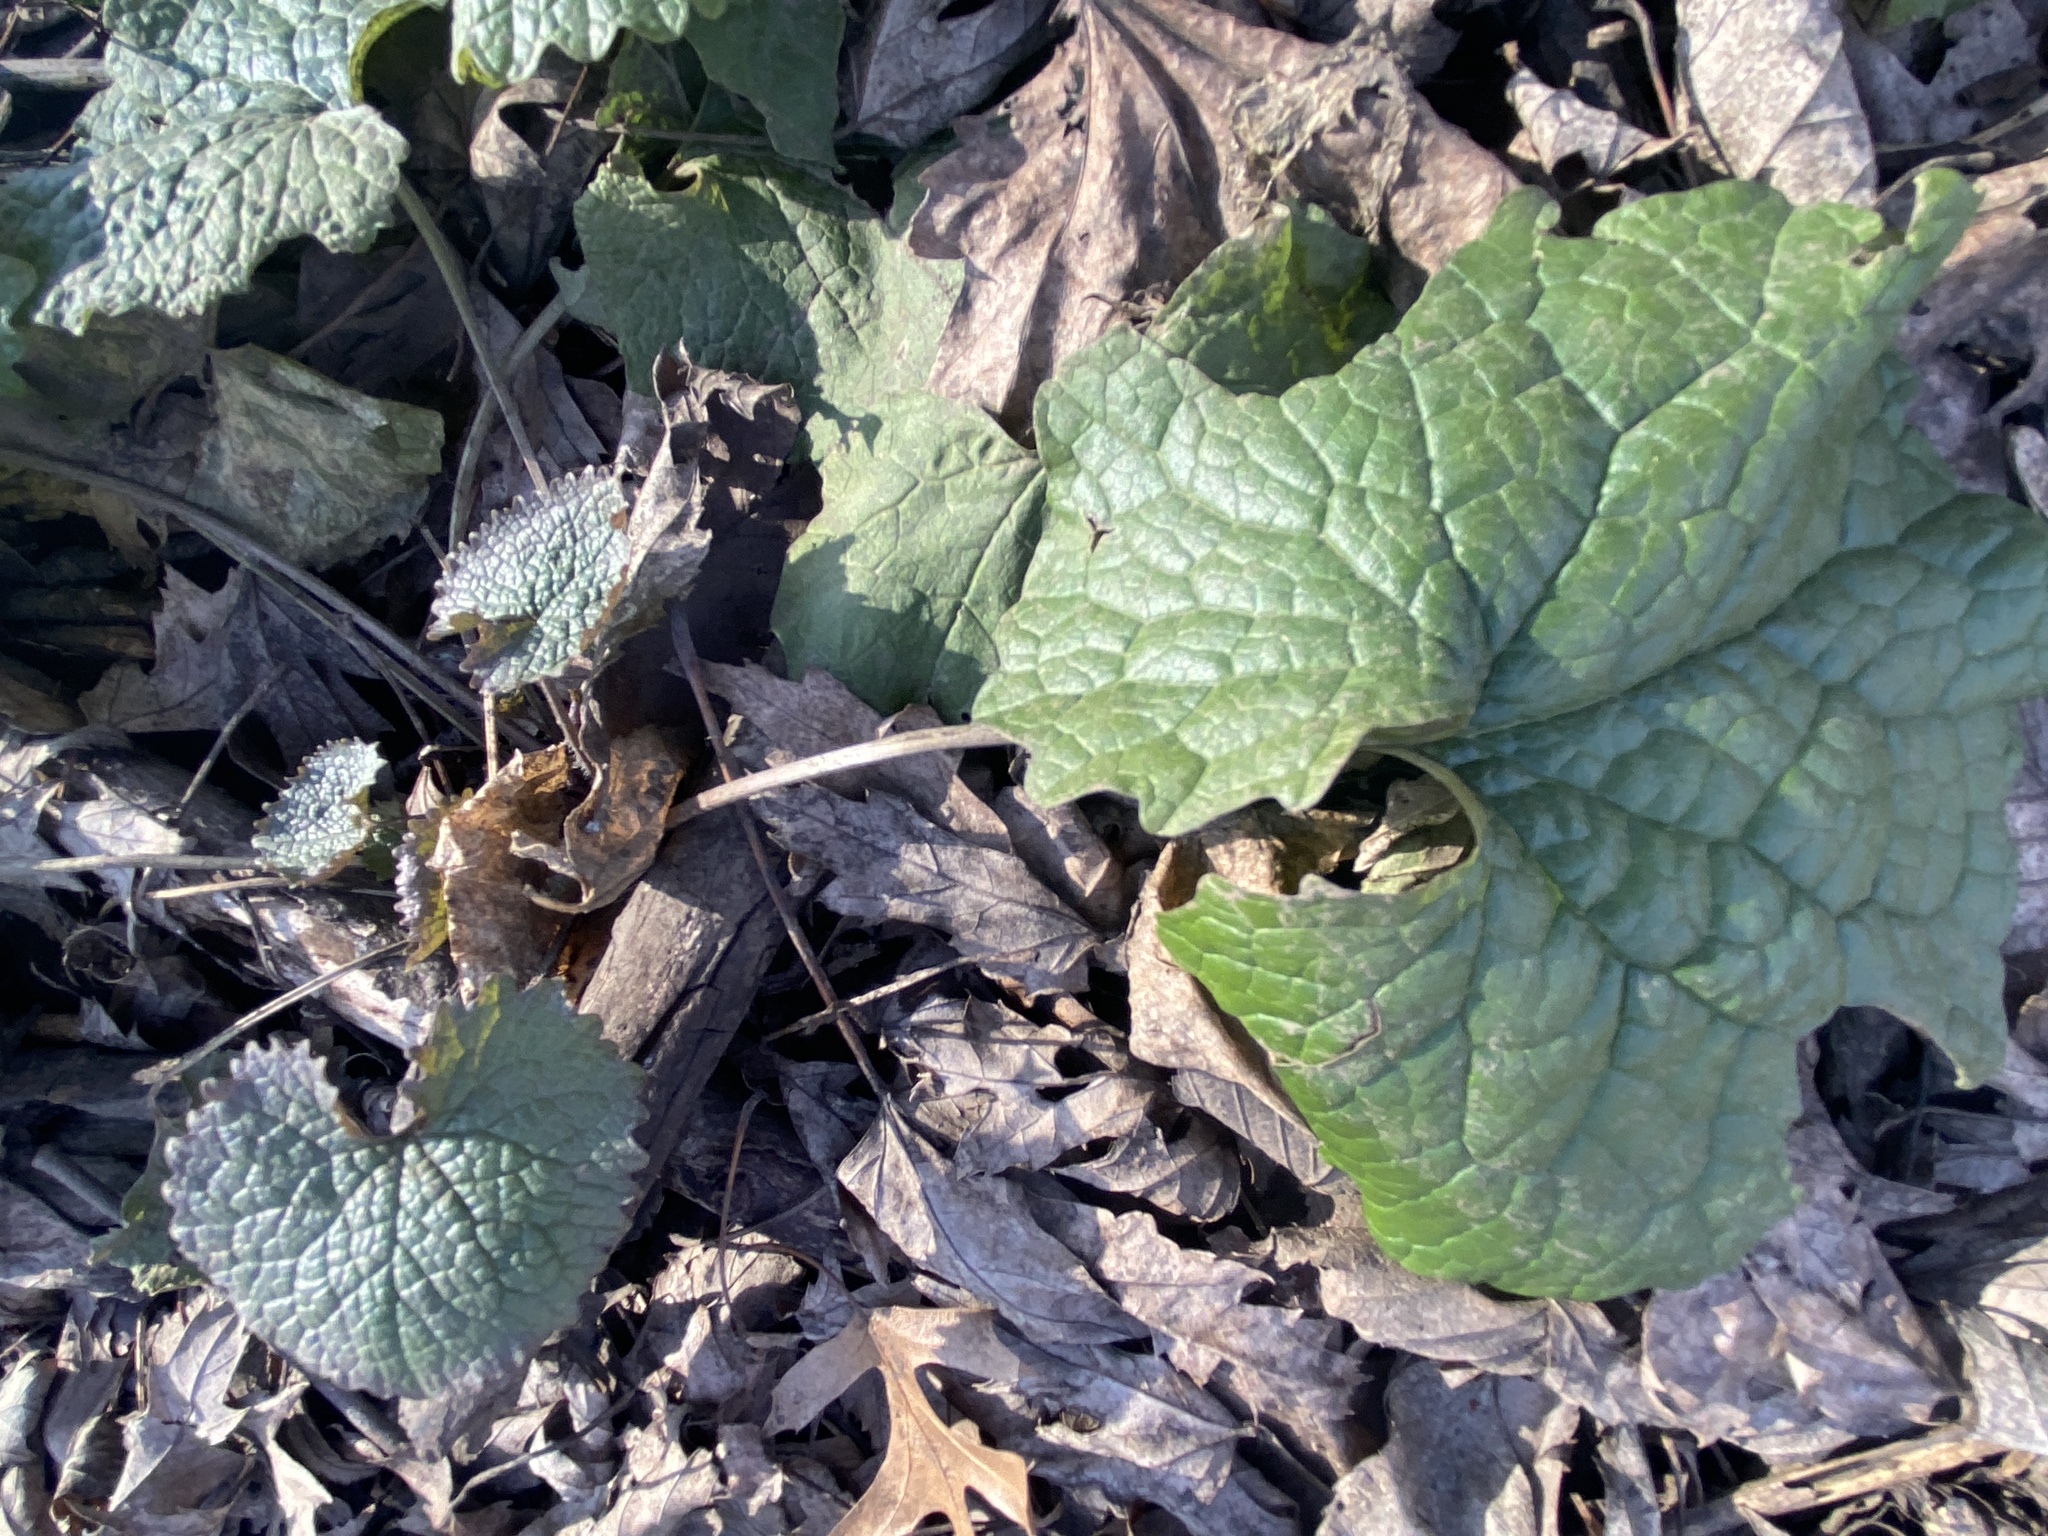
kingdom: Plantae
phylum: Tracheophyta
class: Magnoliopsida
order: Brassicales
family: Brassicaceae
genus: Alliaria
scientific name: Alliaria petiolata
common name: Garlic mustard
